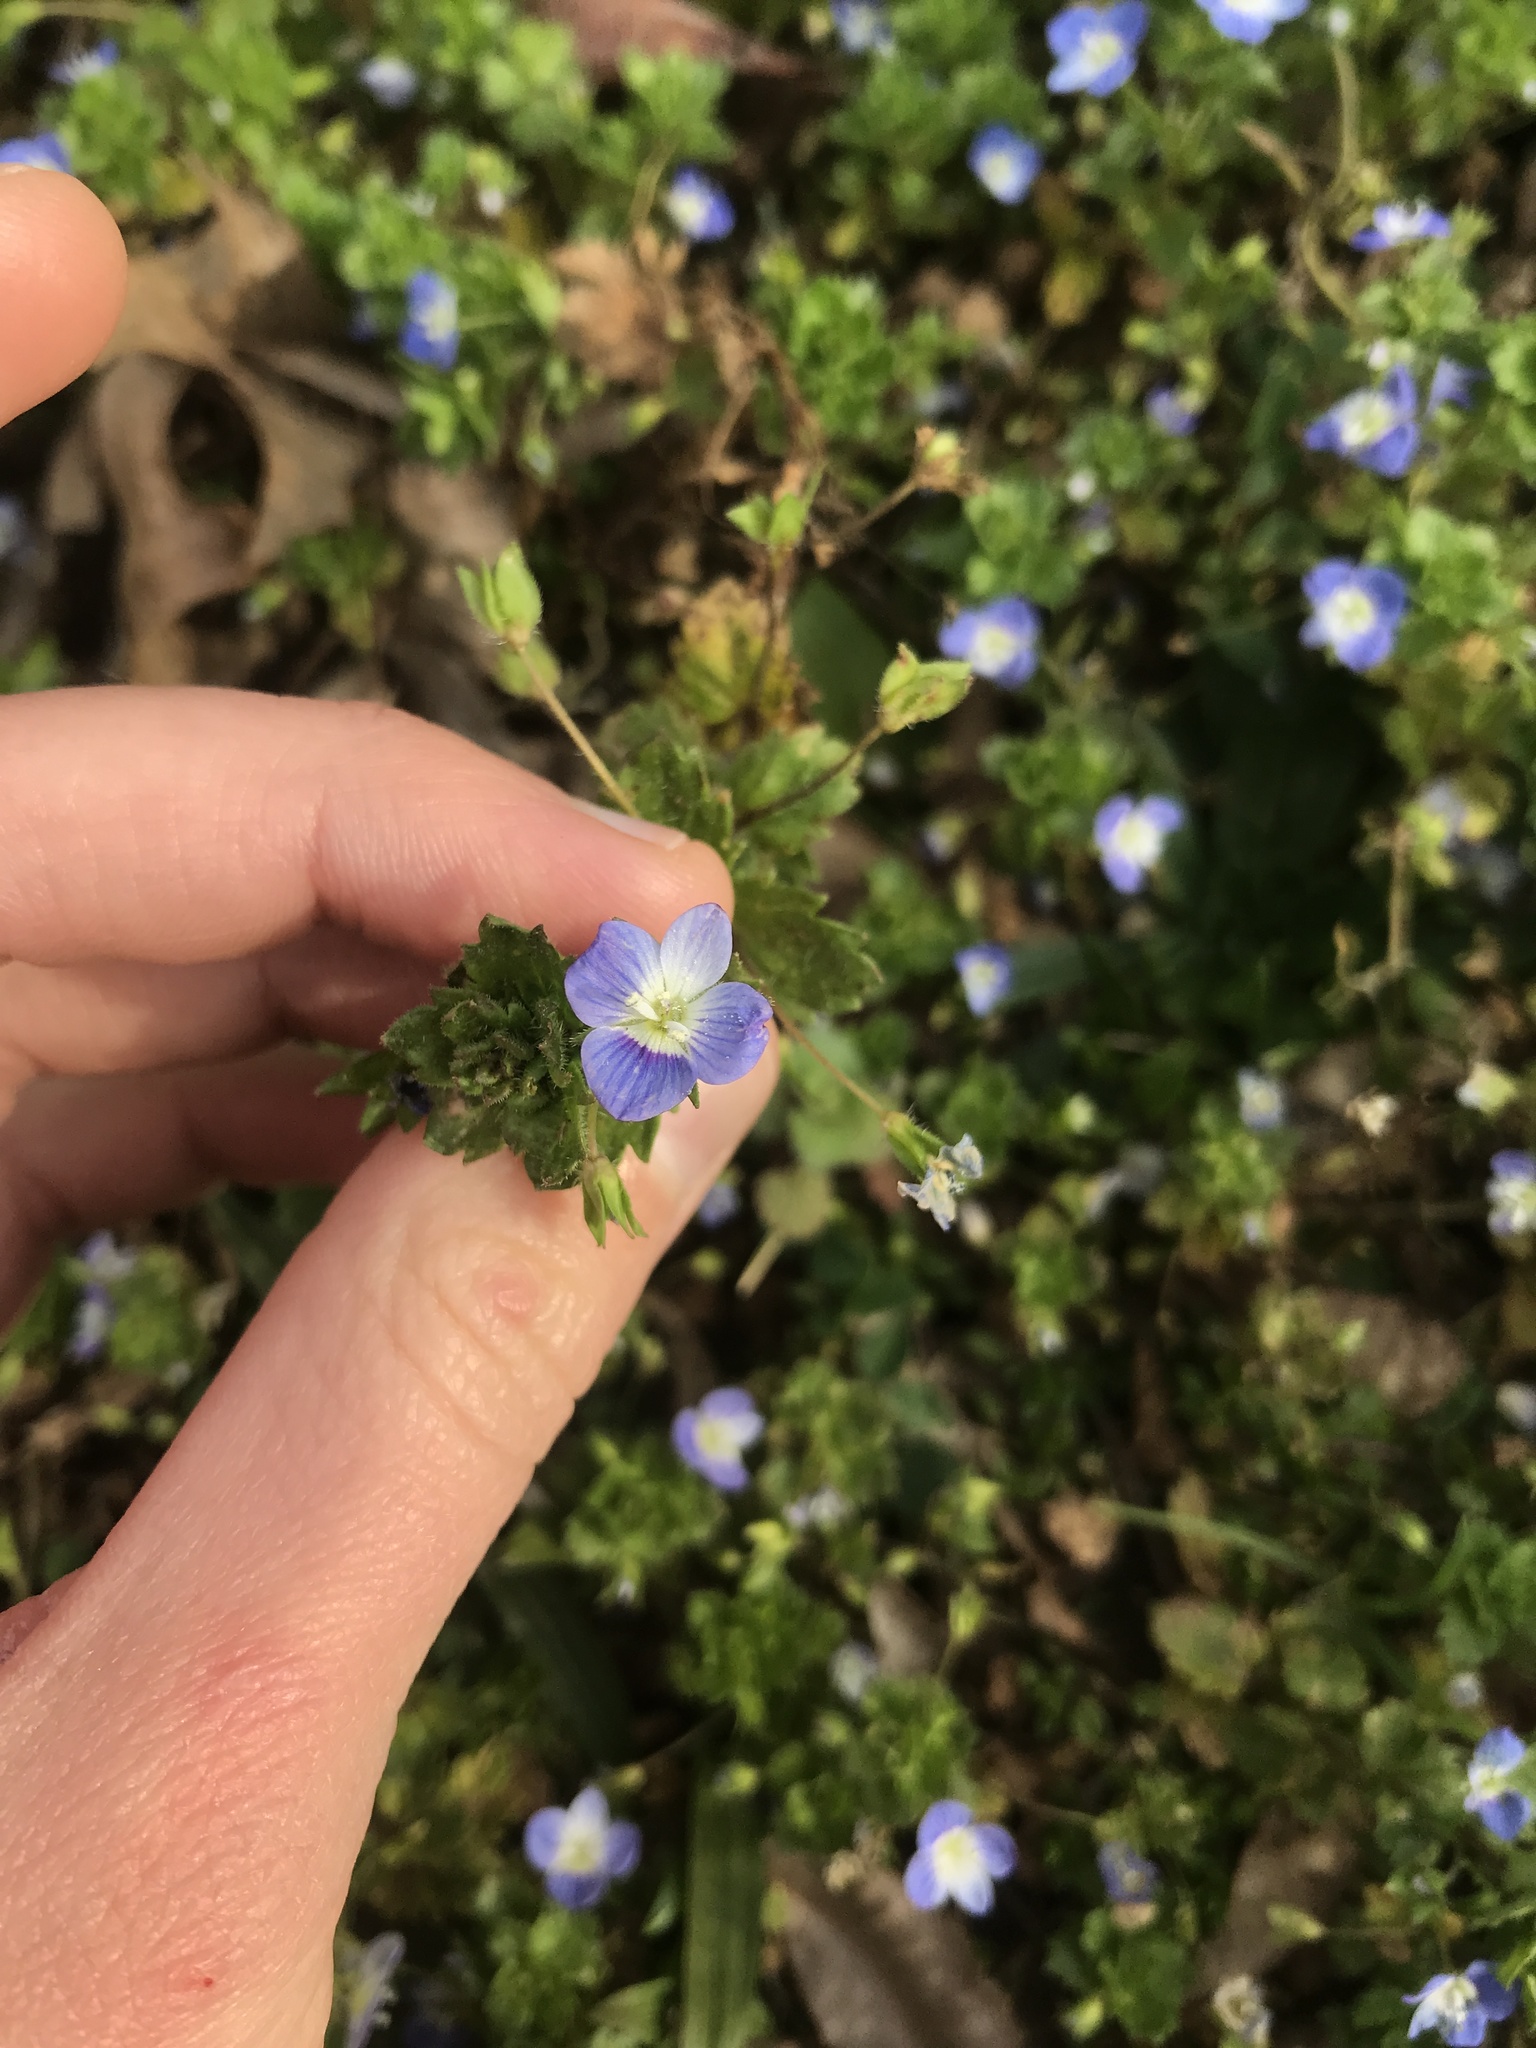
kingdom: Plantae
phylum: Tracheophyta
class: Magnoliopsida
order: Lamiales
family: Plantaginaceae
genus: Veronica
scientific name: Veronica persica
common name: Common field-speedwell
